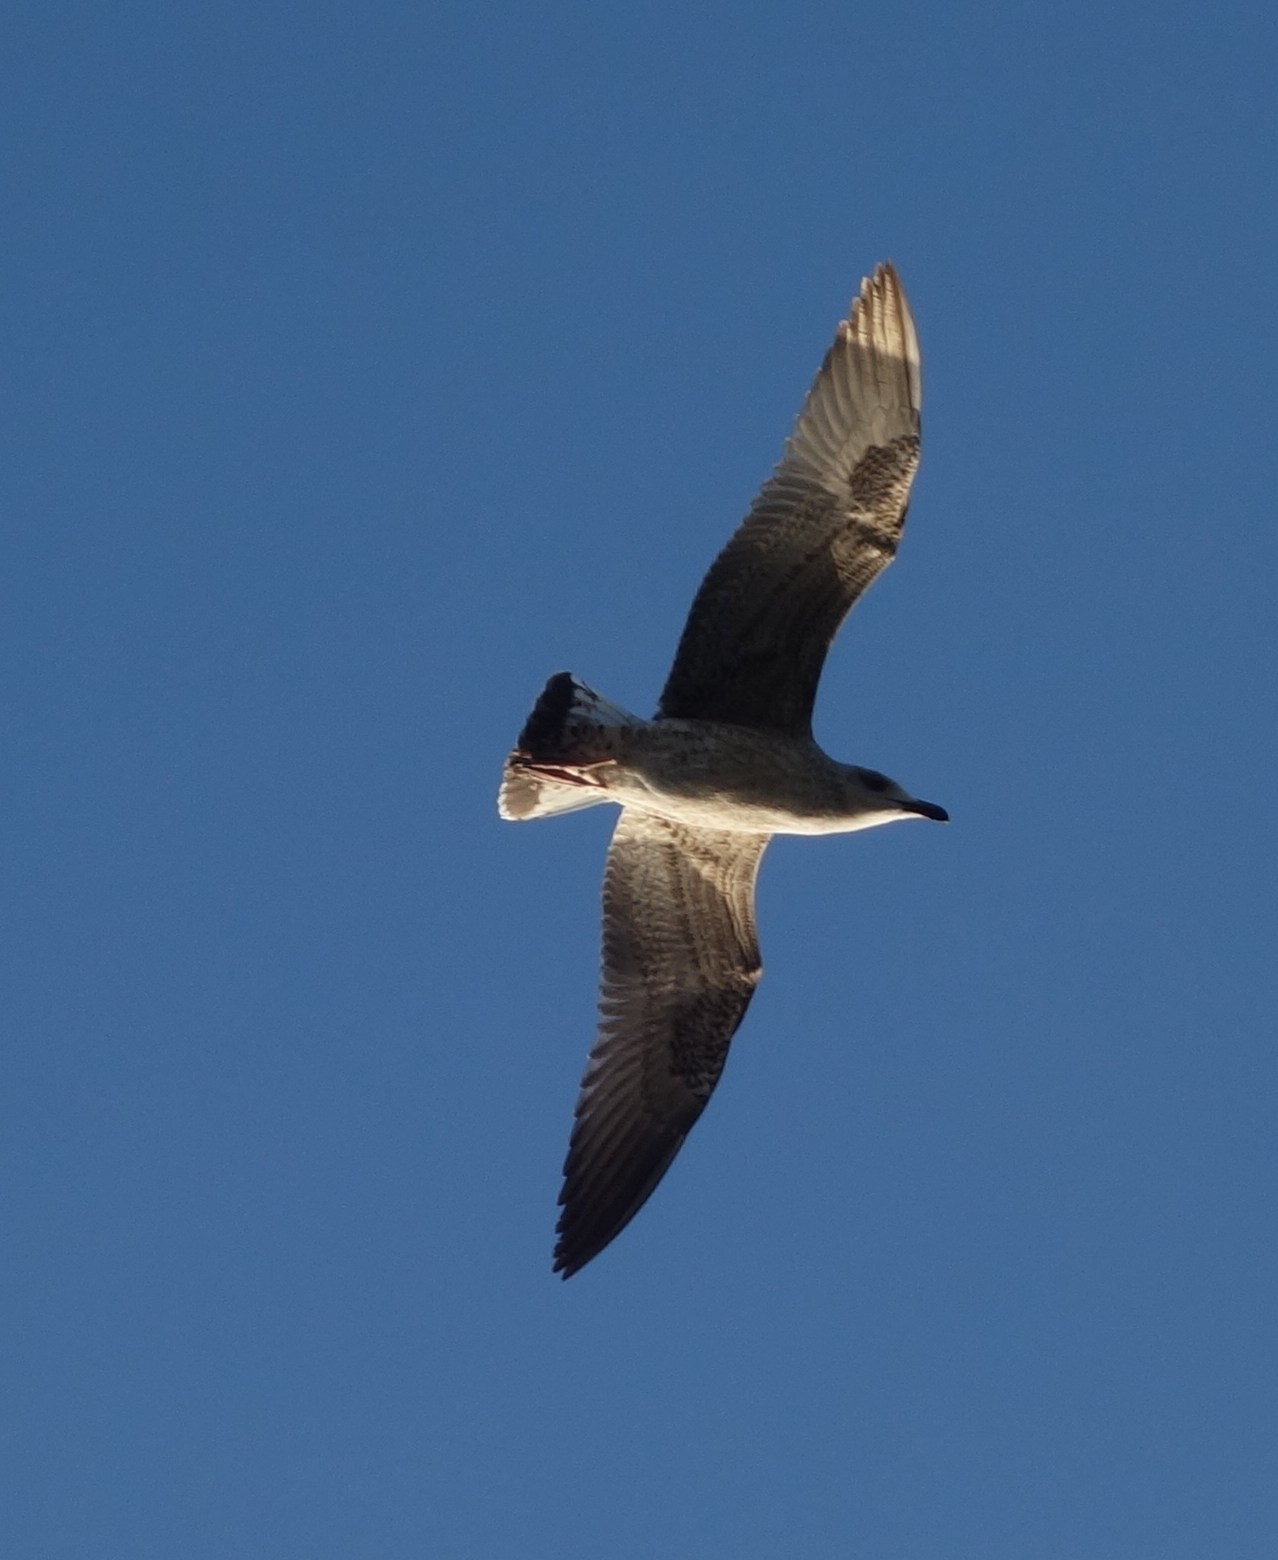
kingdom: Animalia
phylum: Chordata
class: Aves
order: Charadriiformes
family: Laridae
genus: Larus
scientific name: Larus michahellis
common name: Yellow-legged gull
